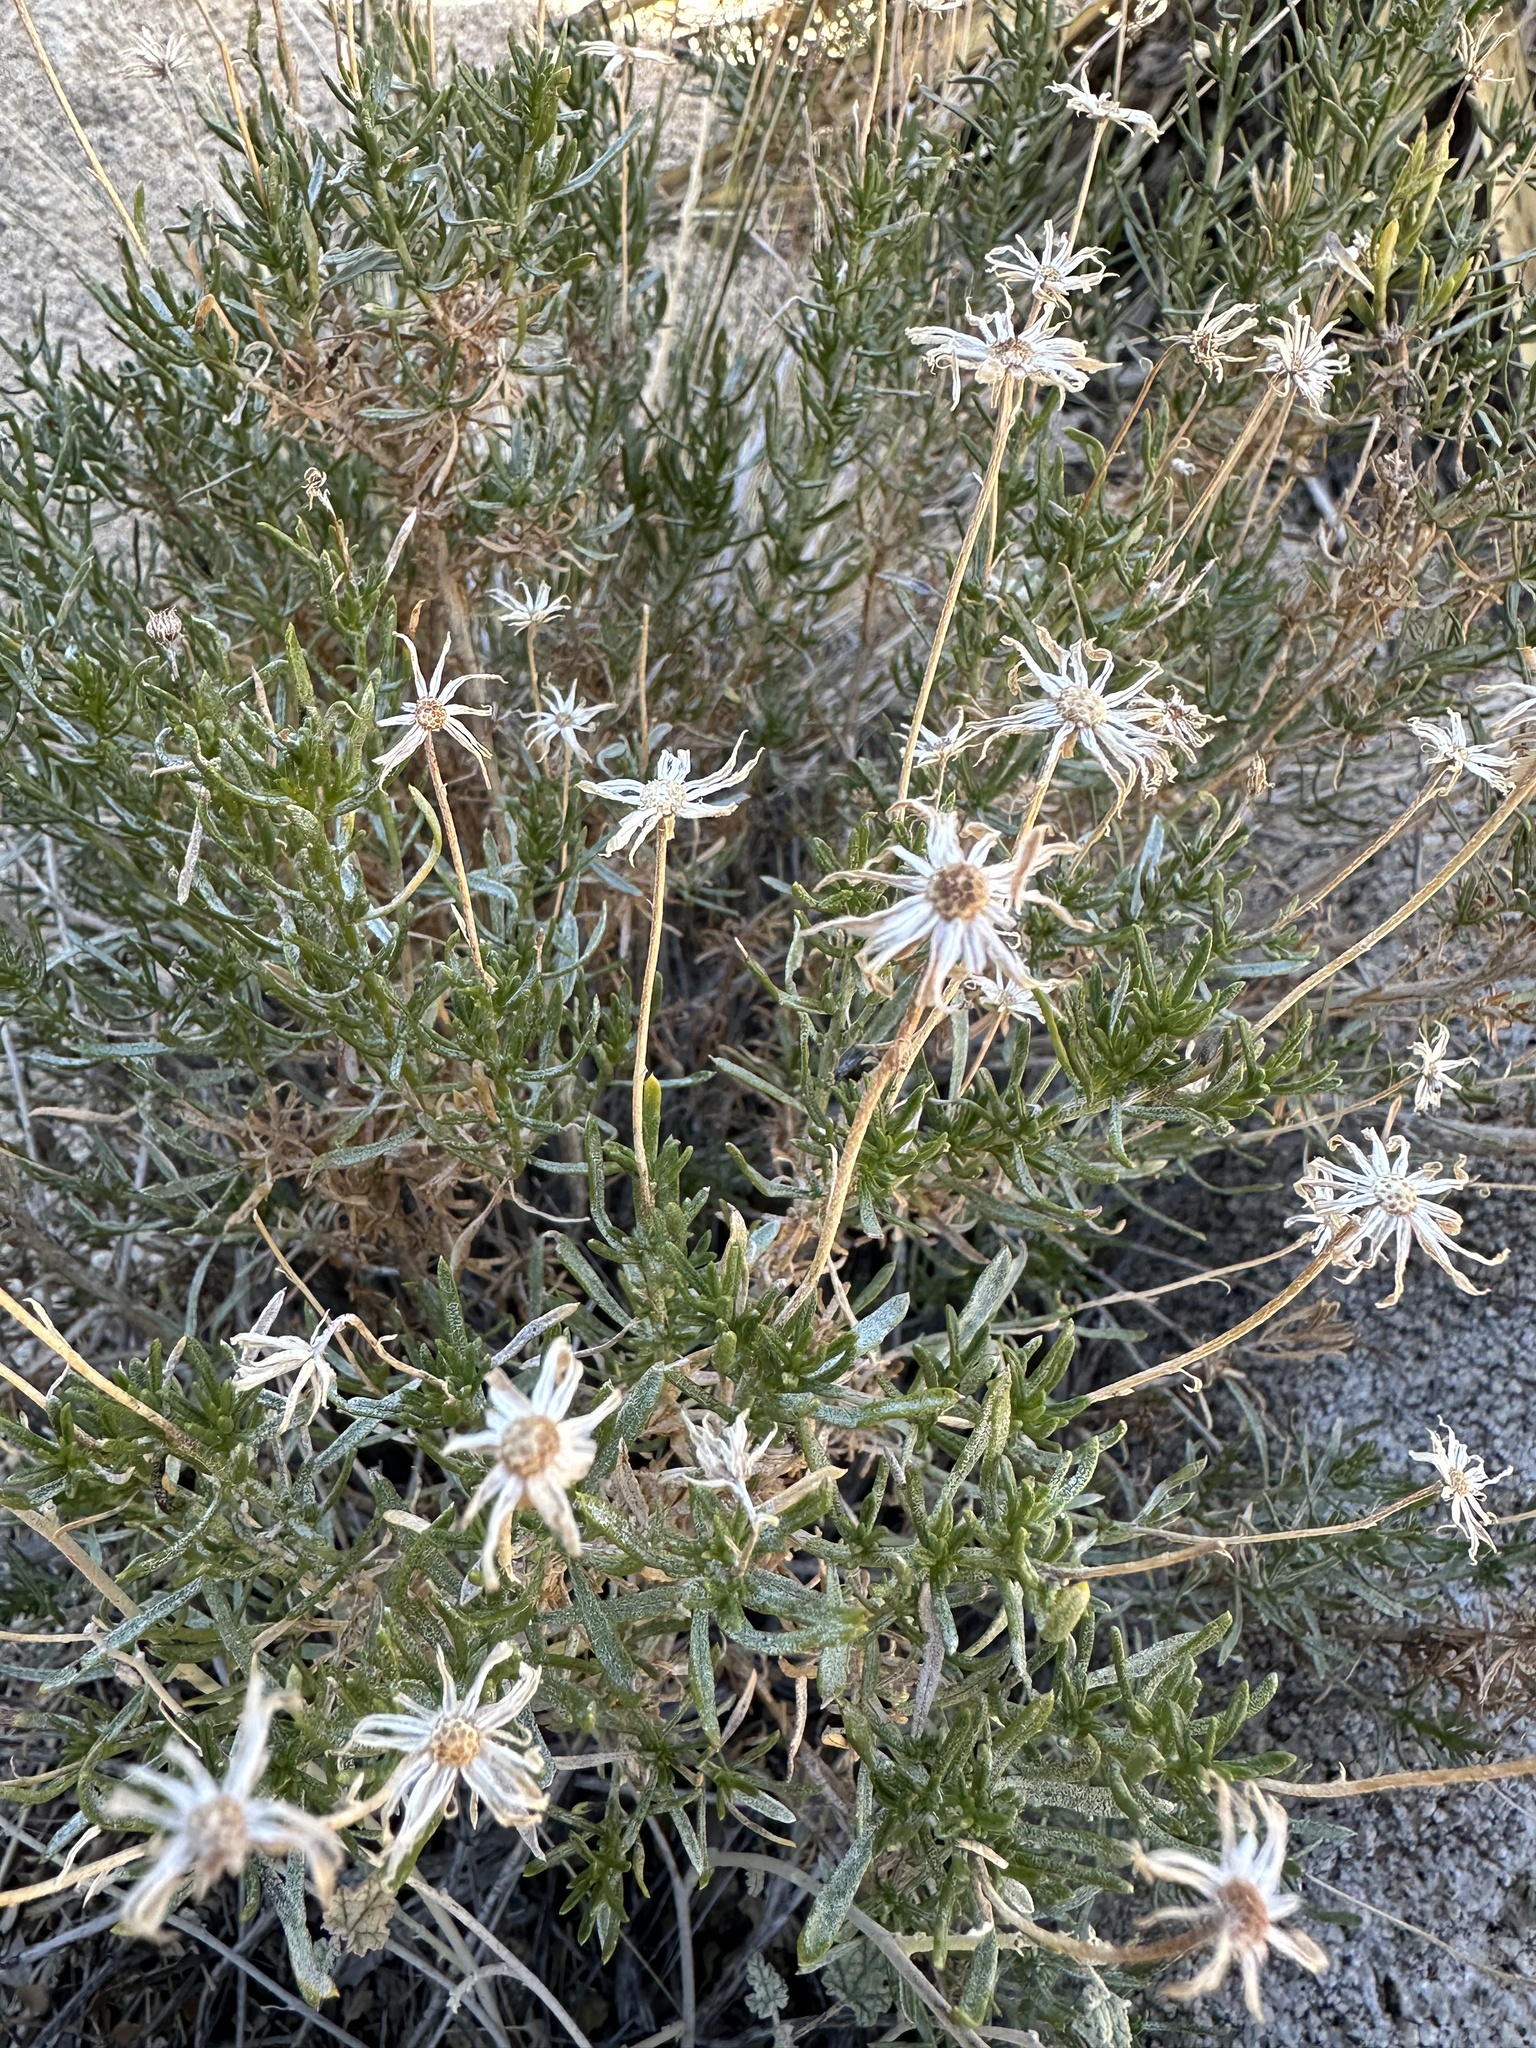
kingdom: Plantae
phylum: Tracheophyta
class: Magnoliopsida
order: Asterales
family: Asteraceae
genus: Ericameria
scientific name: Ericameria linearifolia
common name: Interior goldenbush
